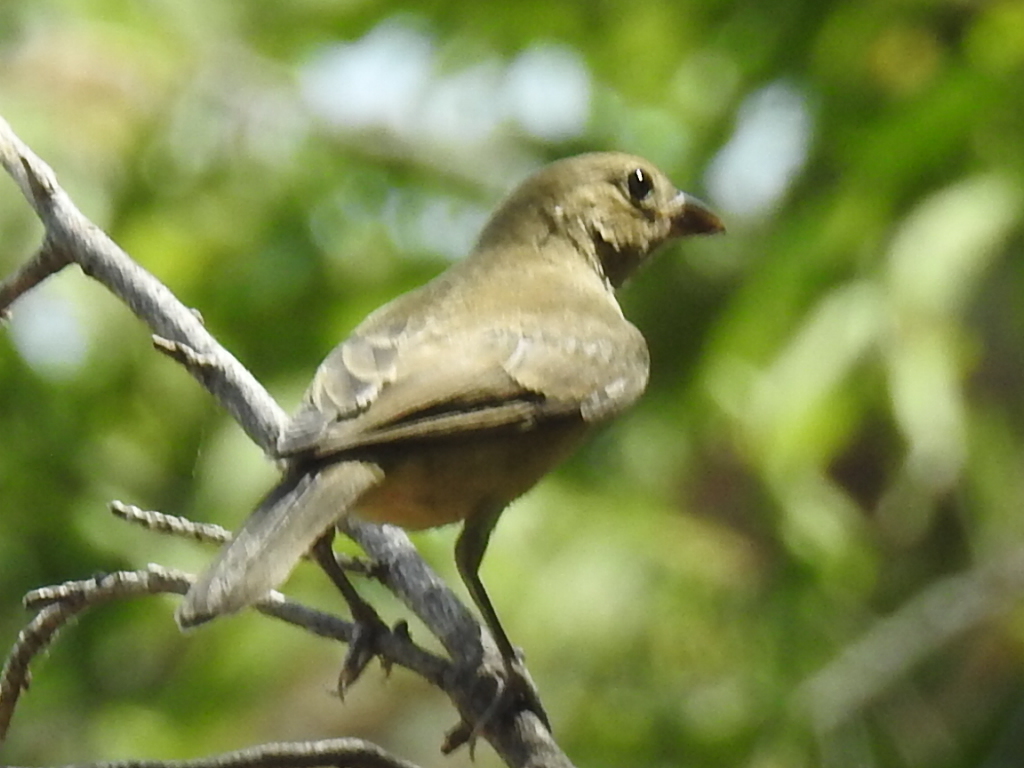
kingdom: Animalia
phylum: Chordata
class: Aves
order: Passeriformes
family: Cardinalidae
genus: Passerina
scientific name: Passerina ciris
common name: Painted bunting
